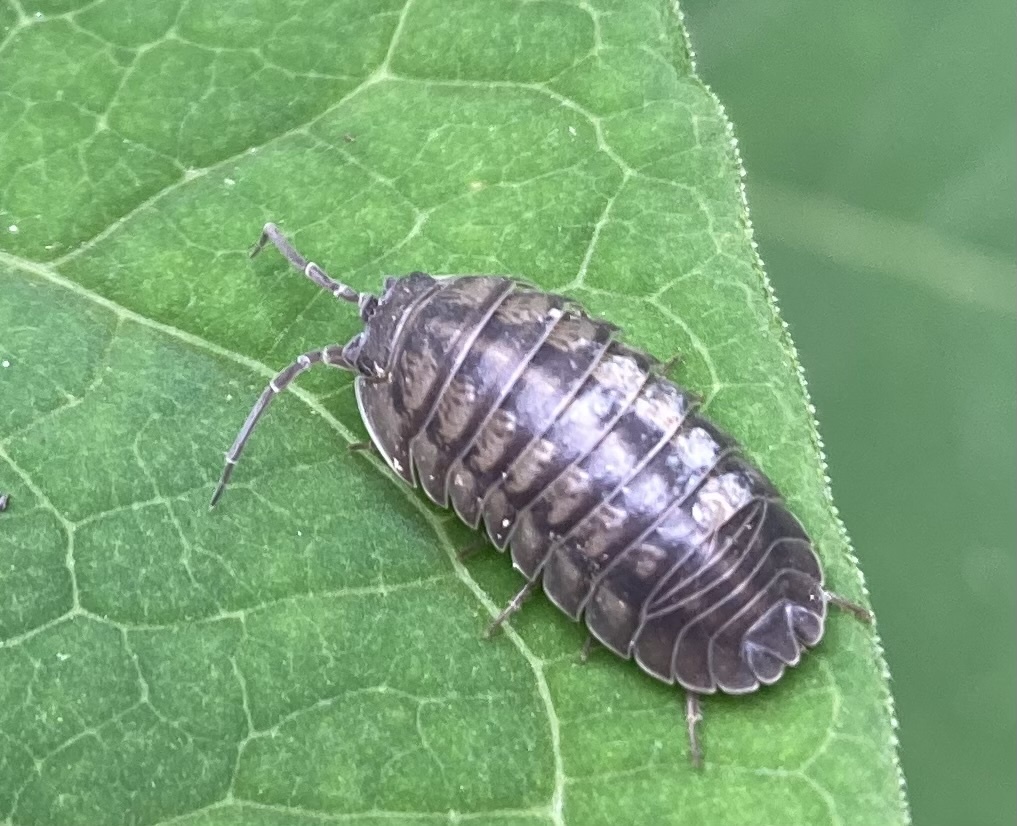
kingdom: Animalia
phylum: Arthropoda
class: Malacostraca
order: Isopoda
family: Armadillidiidae
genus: Armadillidium
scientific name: Armadillidium nasatum
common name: Isopod
